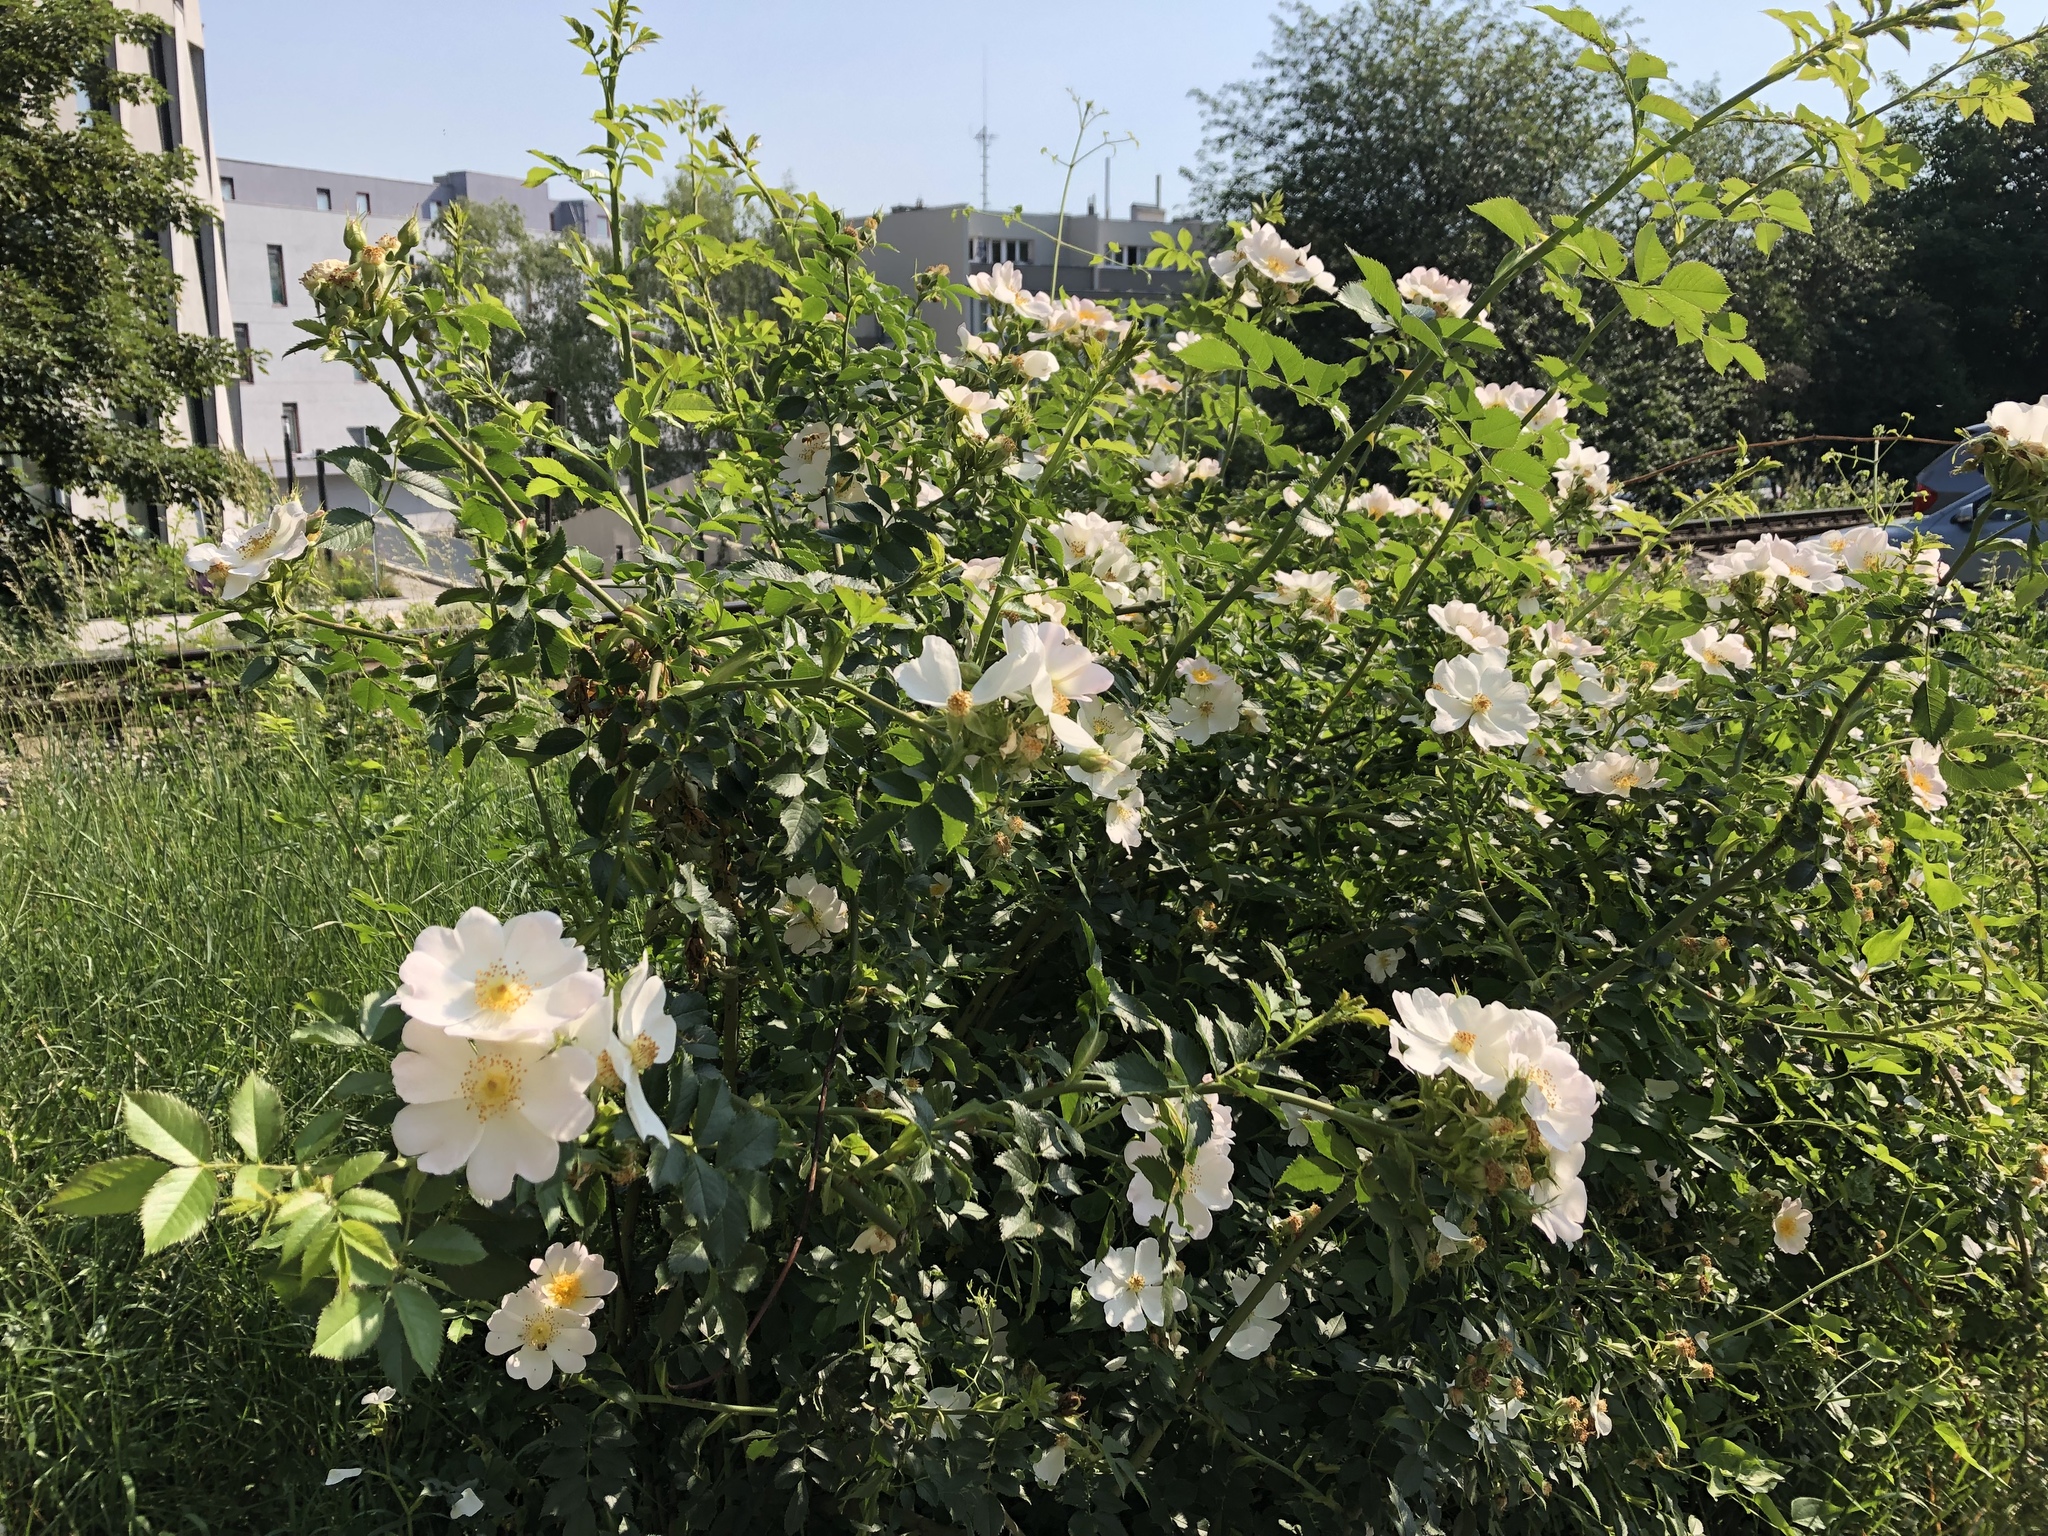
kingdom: Plantae
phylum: Tracheophyta
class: Magnoliopsida
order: Rosales
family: Rosaceae
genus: Rosa
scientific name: Rosa canina
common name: Dog rose
